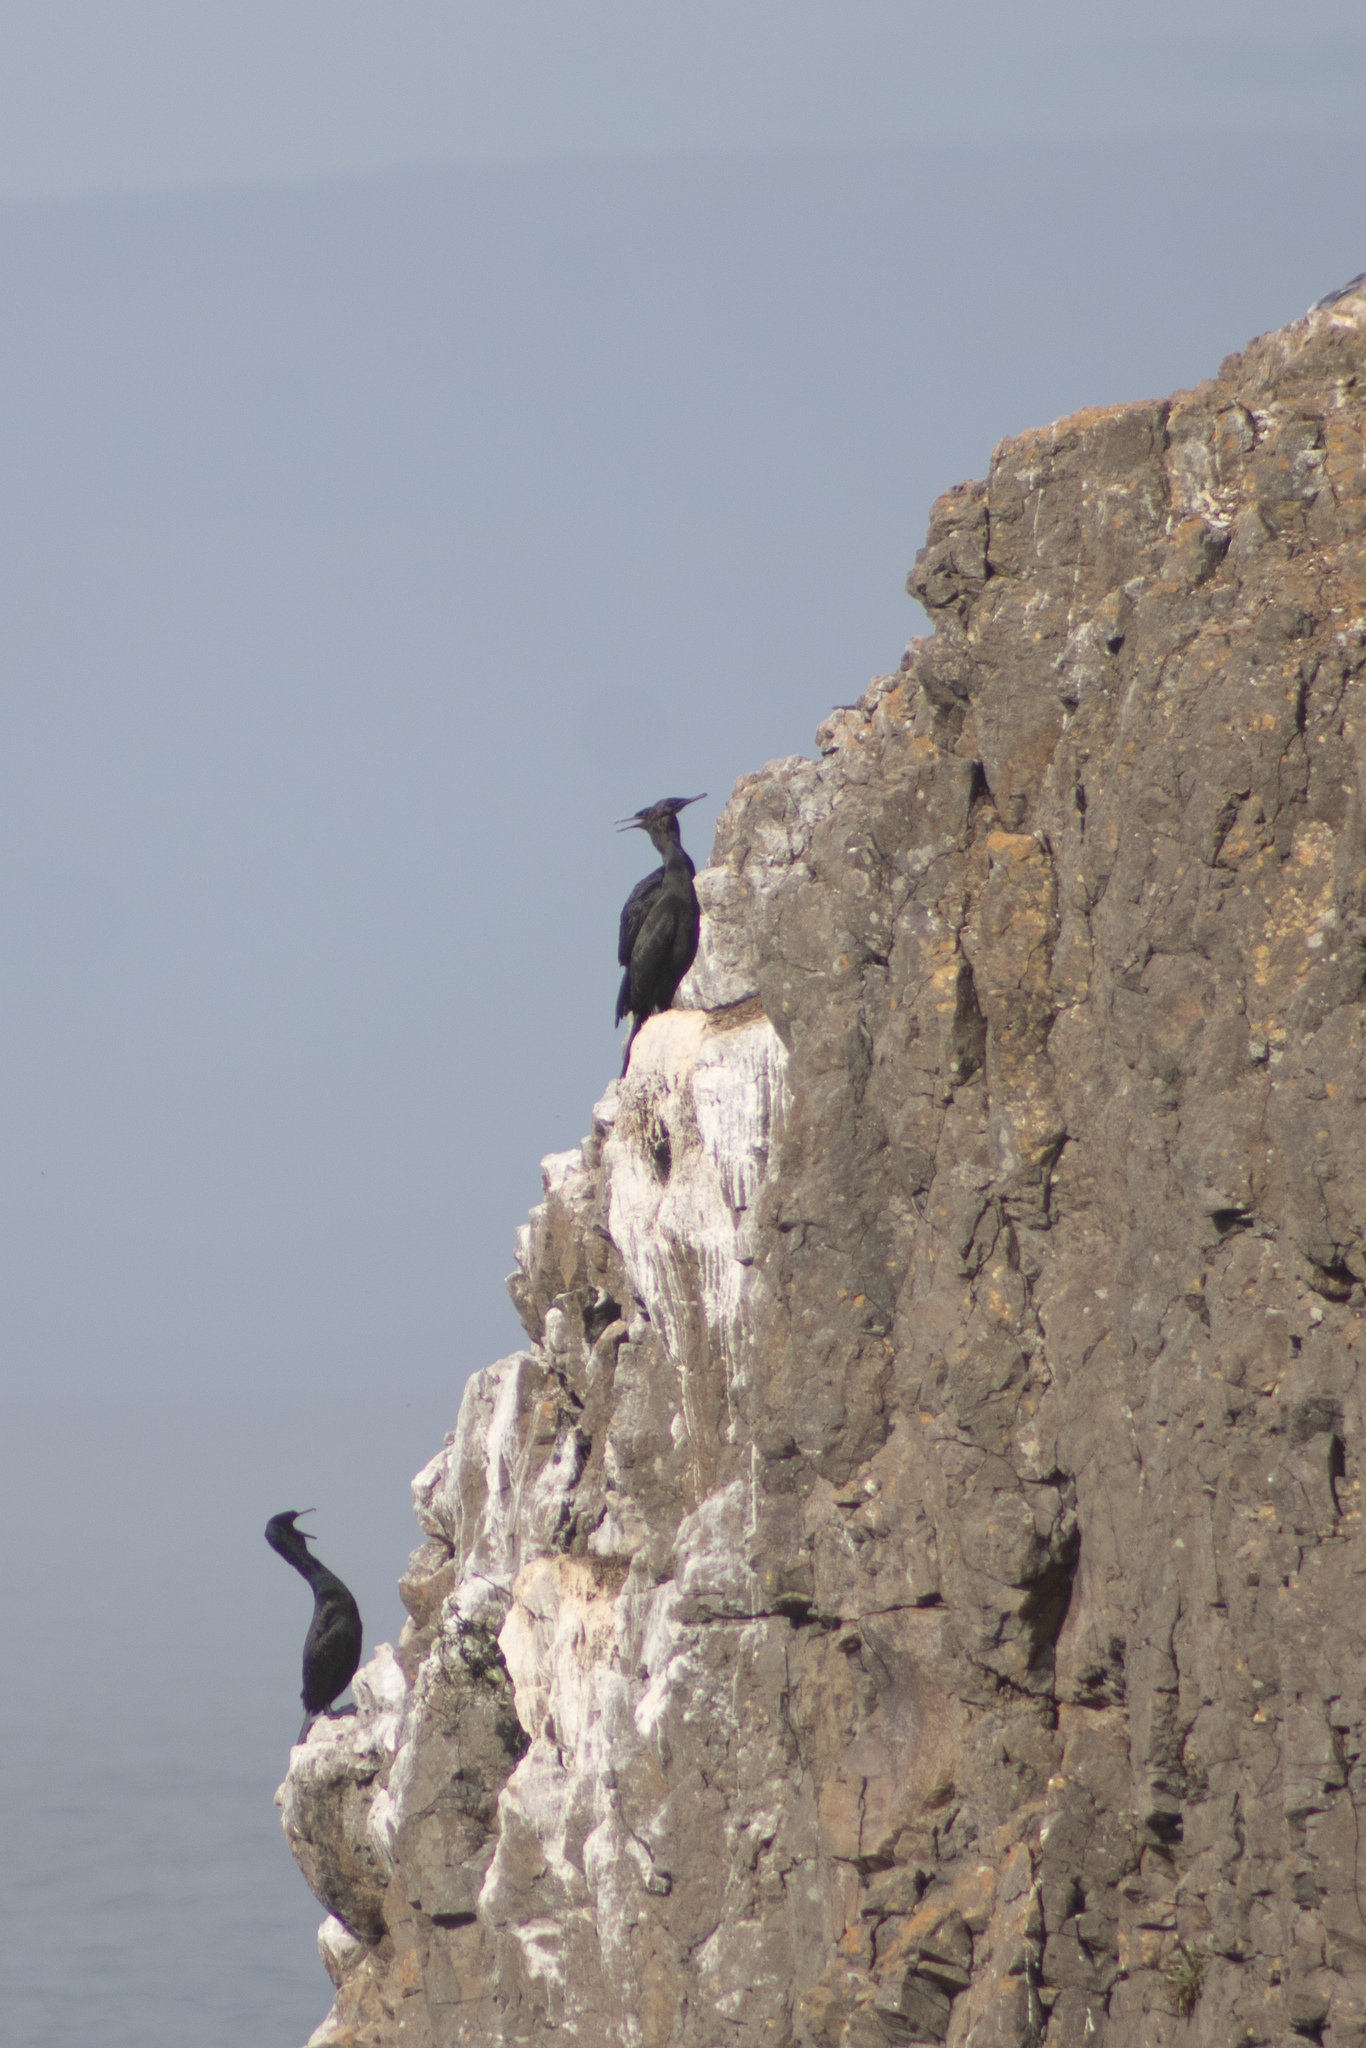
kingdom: Animalia
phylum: Chordata
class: Aves
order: Suliformes
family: Phalacrocoracidae
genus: Phalacrocorax
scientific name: Phalacrocorax pelagicus
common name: Pelagic cormorant
